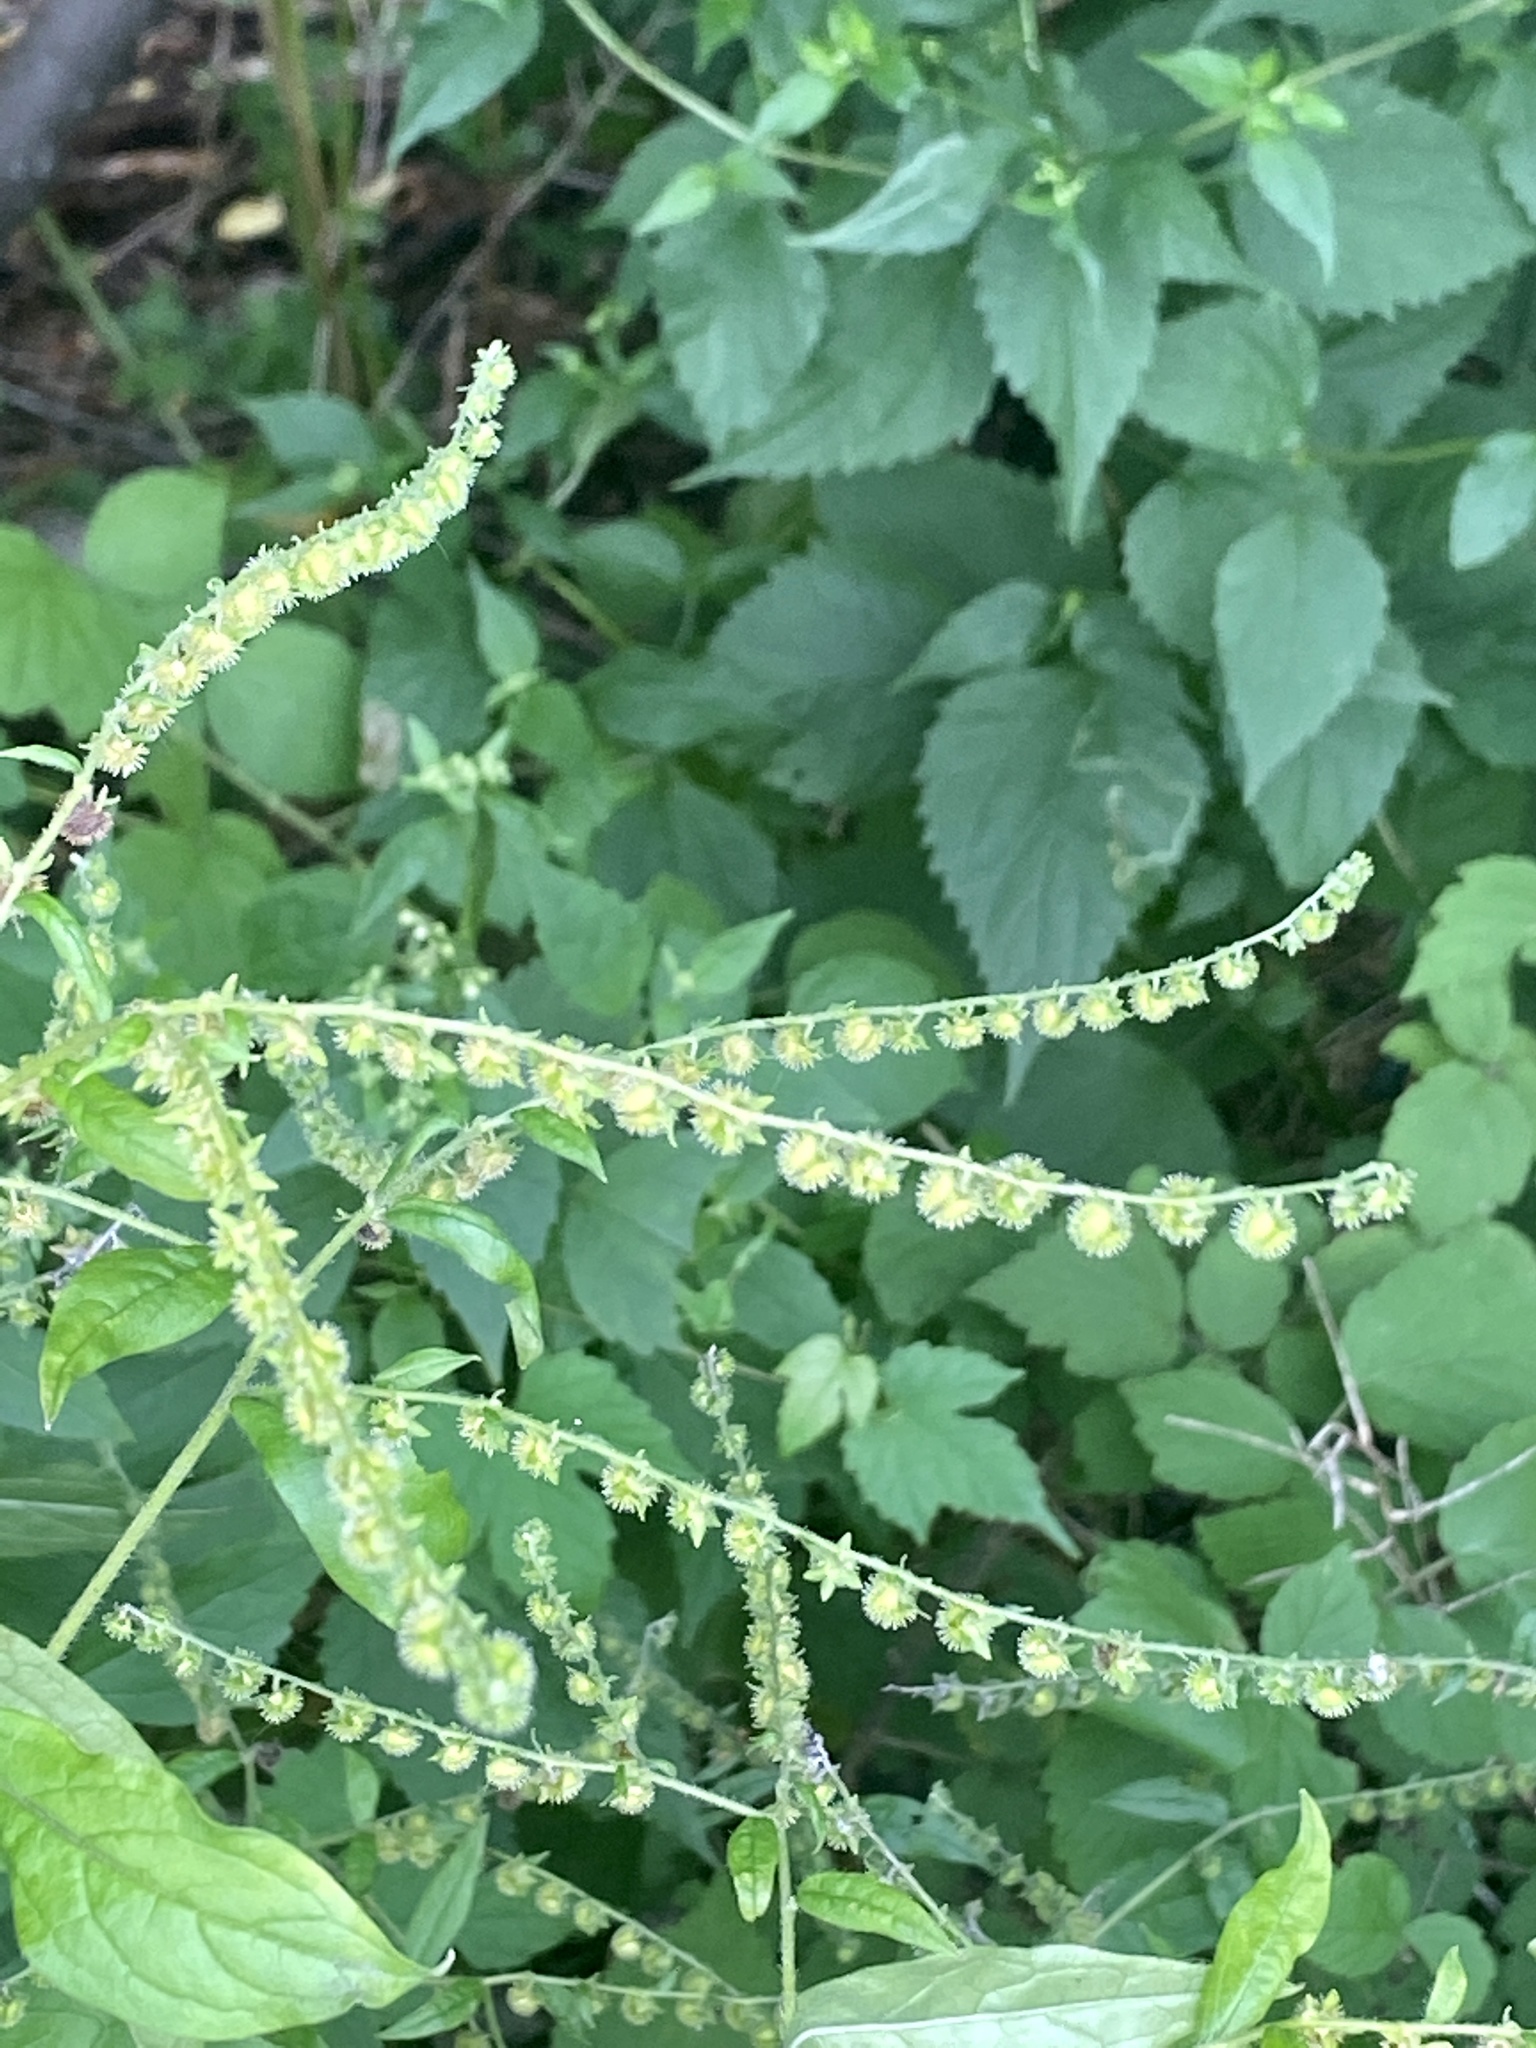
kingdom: Plantae
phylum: Tracheophyta
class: Magnoliopsida
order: Boraginales
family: Boraginaceae
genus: Hackelia
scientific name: Hackelia virginiana
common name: Beggar's-lice
